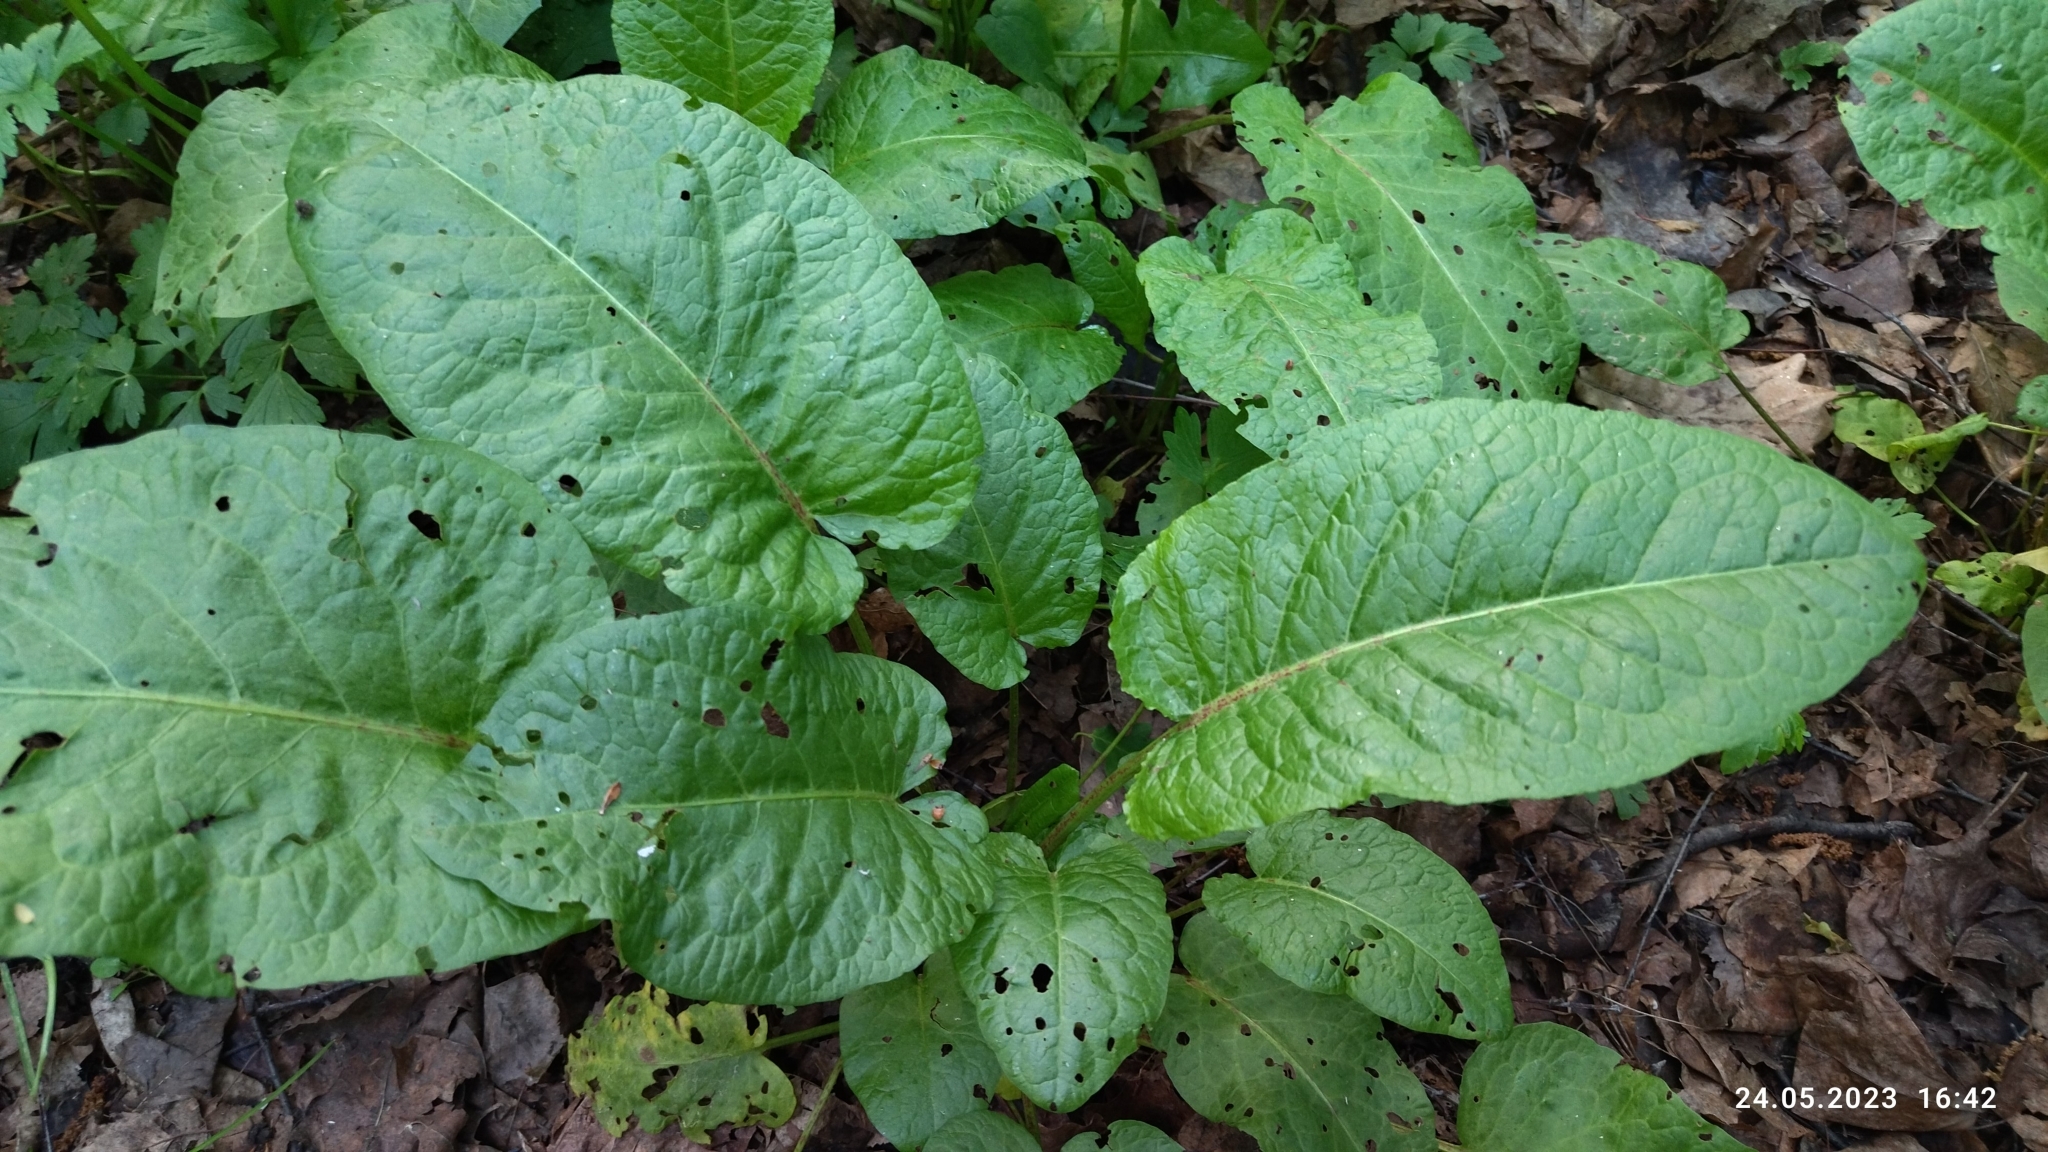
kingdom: Plantae
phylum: Tracheophyta
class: Magnoliopsida
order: Caryophyllales
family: Polygonaceae
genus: Rumex
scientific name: Rumex obtusifolius
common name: Bitter dock
